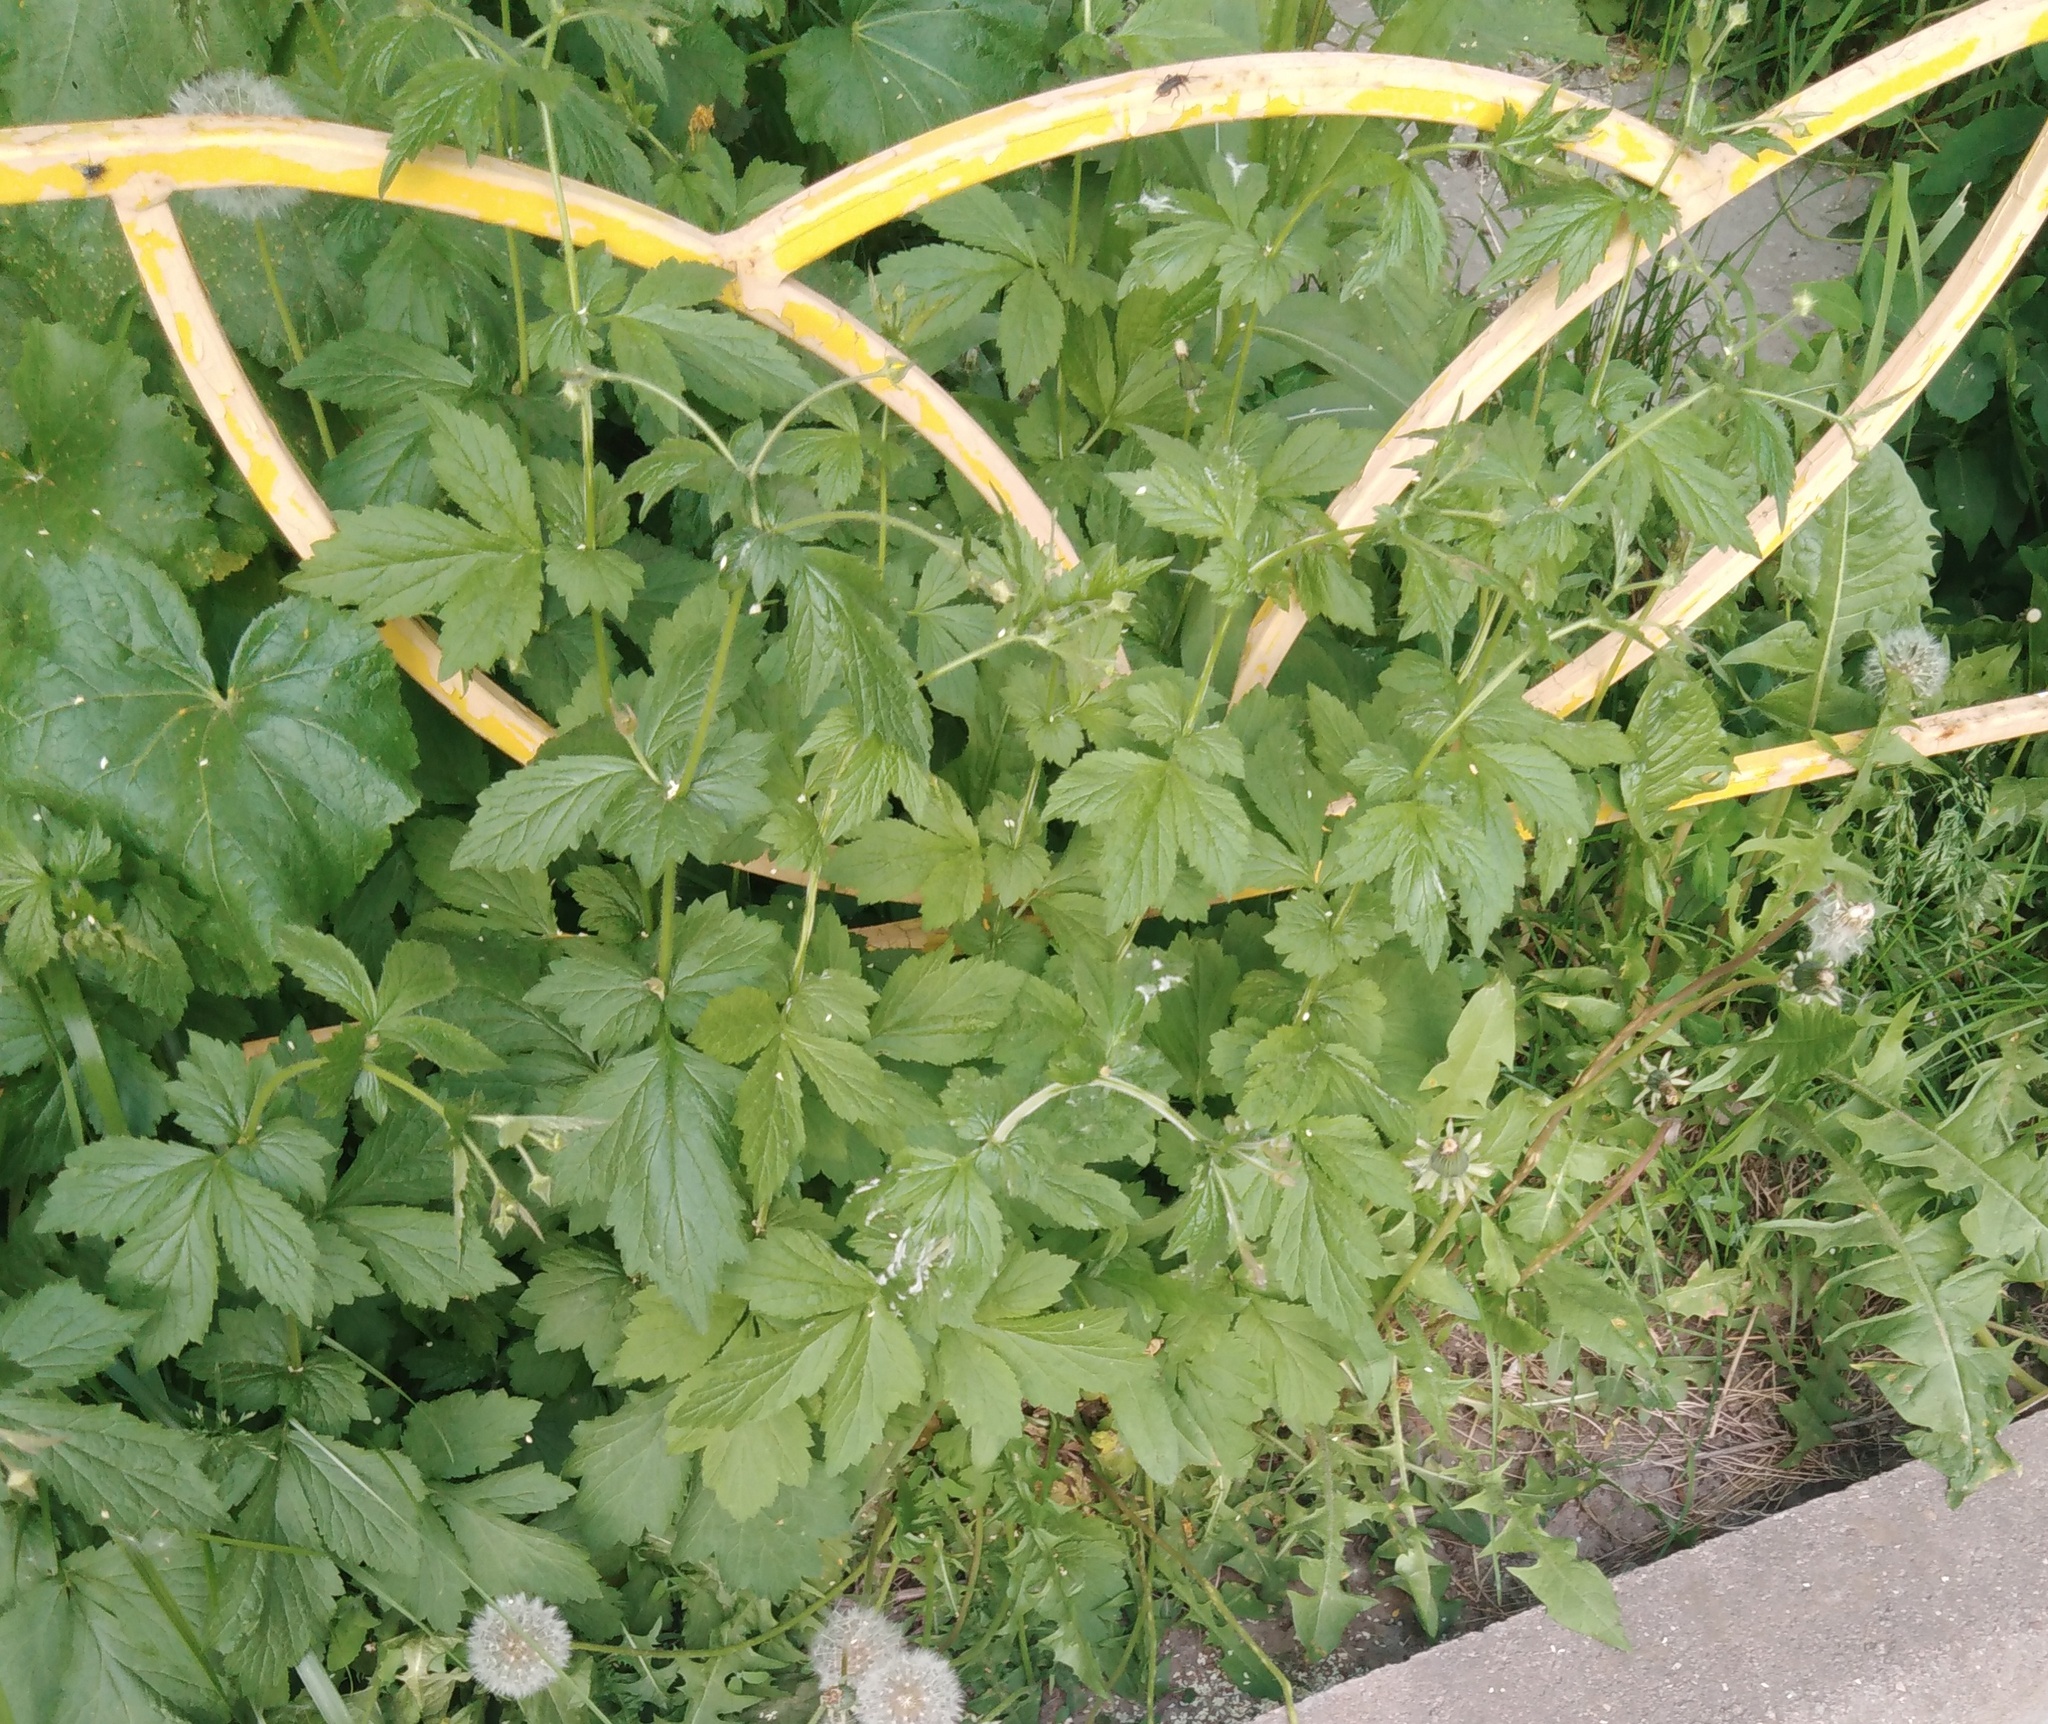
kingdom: Plantae
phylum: Tracheophyta
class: Magnoliopsida
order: Rosales
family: Rosaceae
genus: Geum
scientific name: Geum urbanum
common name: Wood avens
